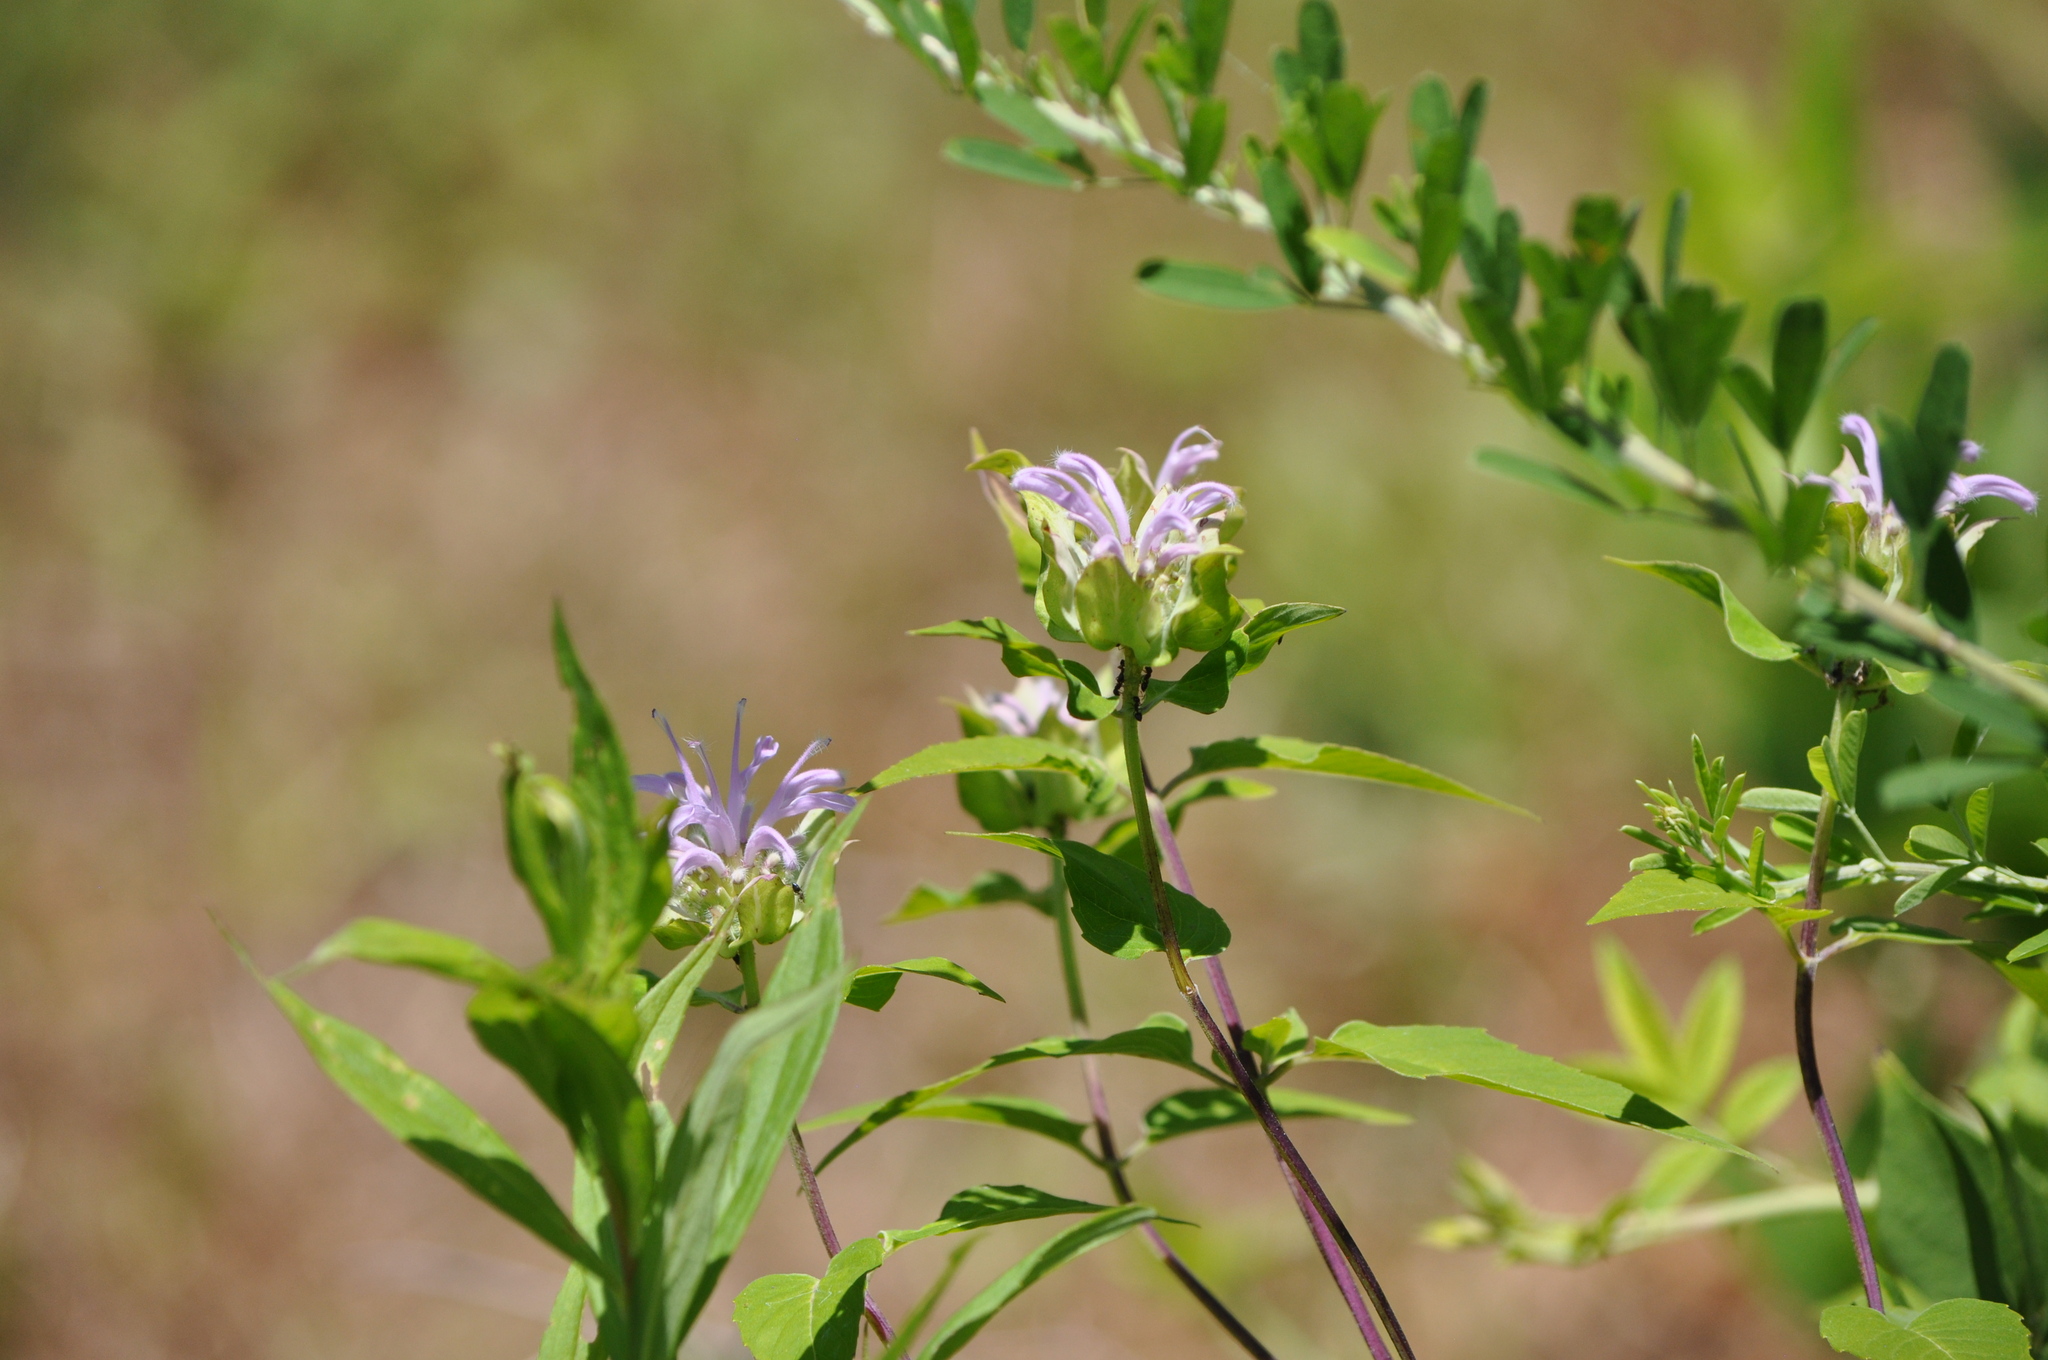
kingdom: Plantae
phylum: Tracheophyta
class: Magnoliopsida
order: Lamiales
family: Lamiaceae
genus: Monarda
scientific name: Monarda fistulosa
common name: Purple beebalm
